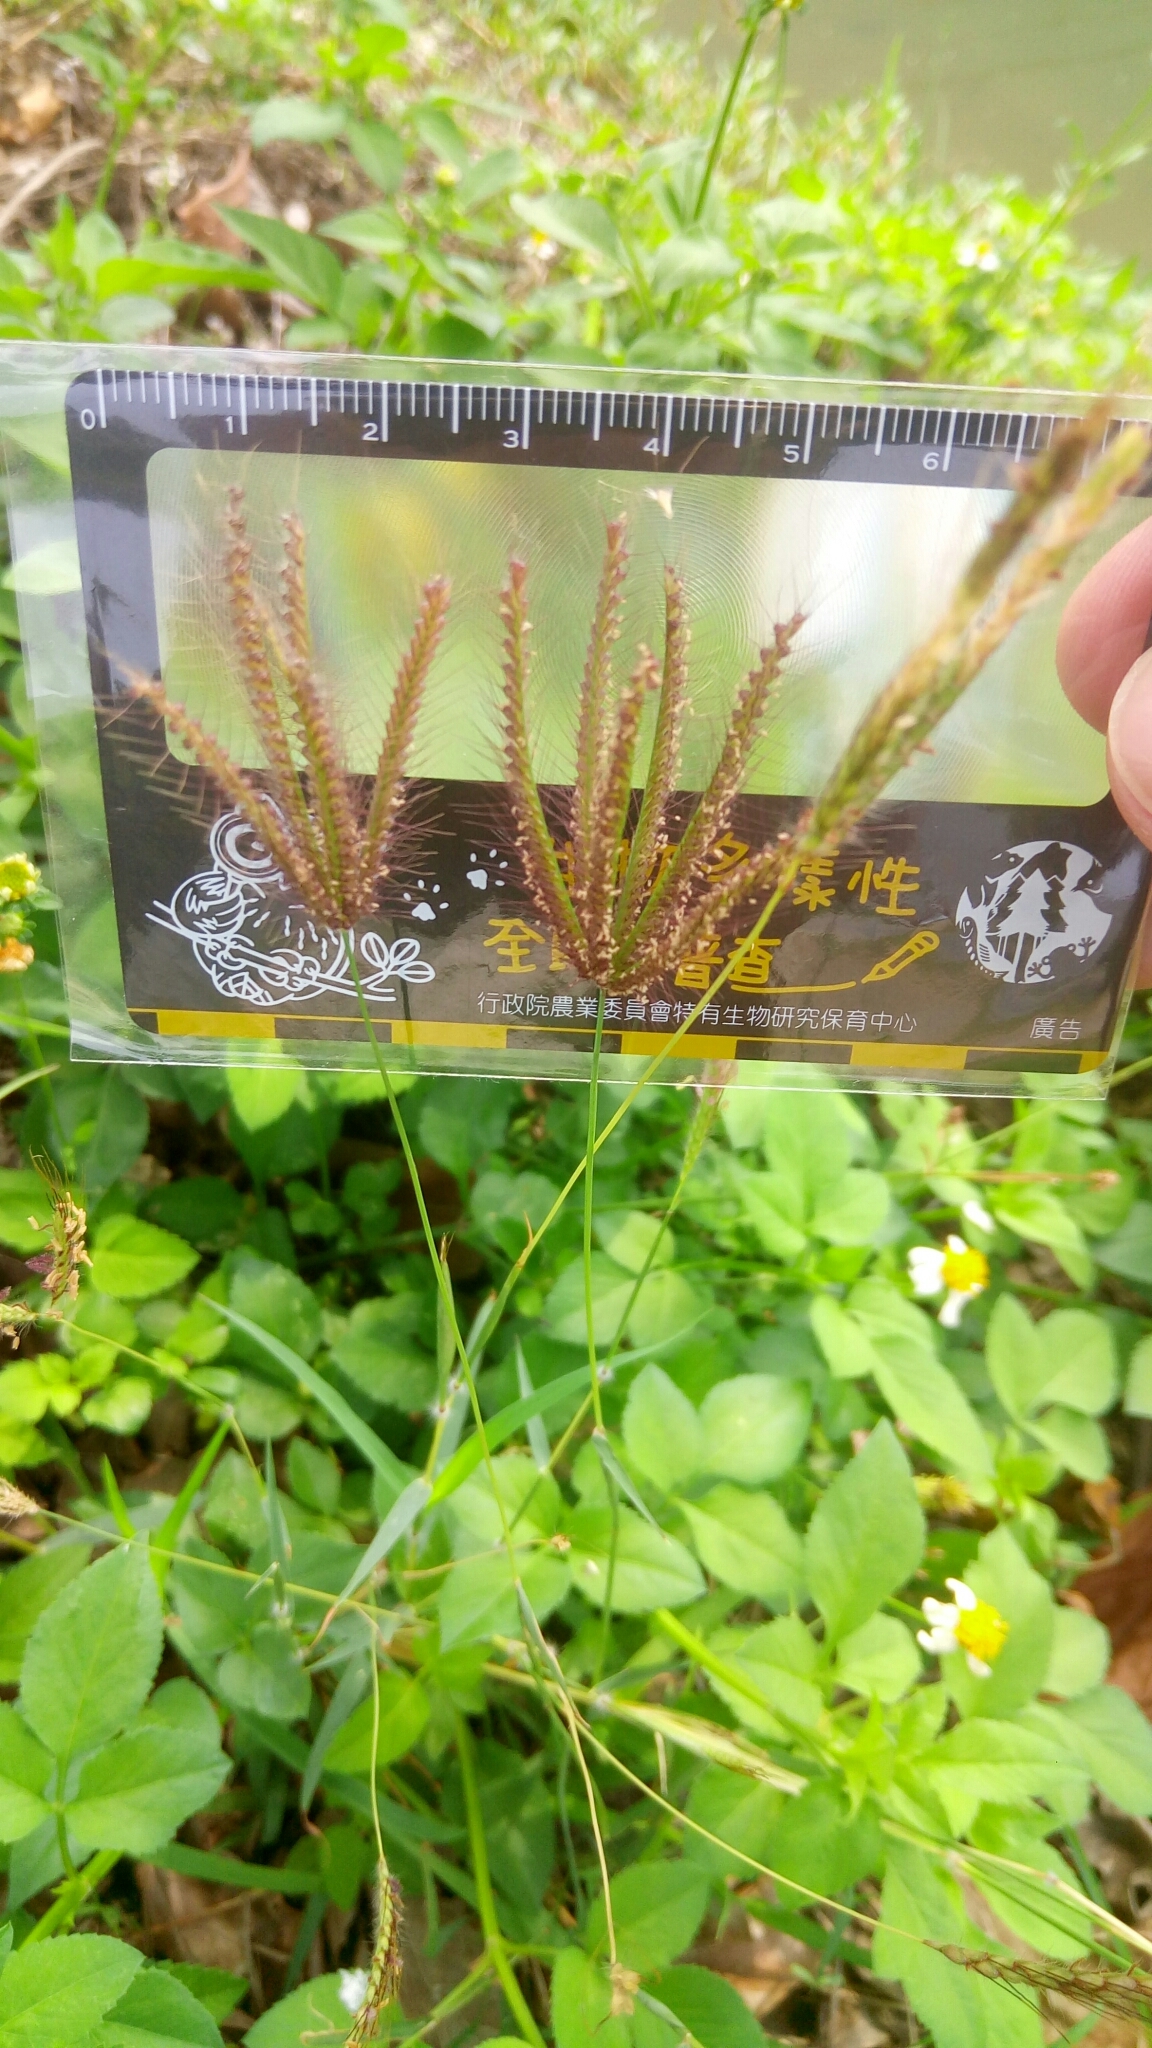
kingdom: Plantae
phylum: Tracheophyta
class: Liliopsida
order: Poales
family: Poaceae
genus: Chloris
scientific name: Chloris barbata
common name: Swollen fingergrass
